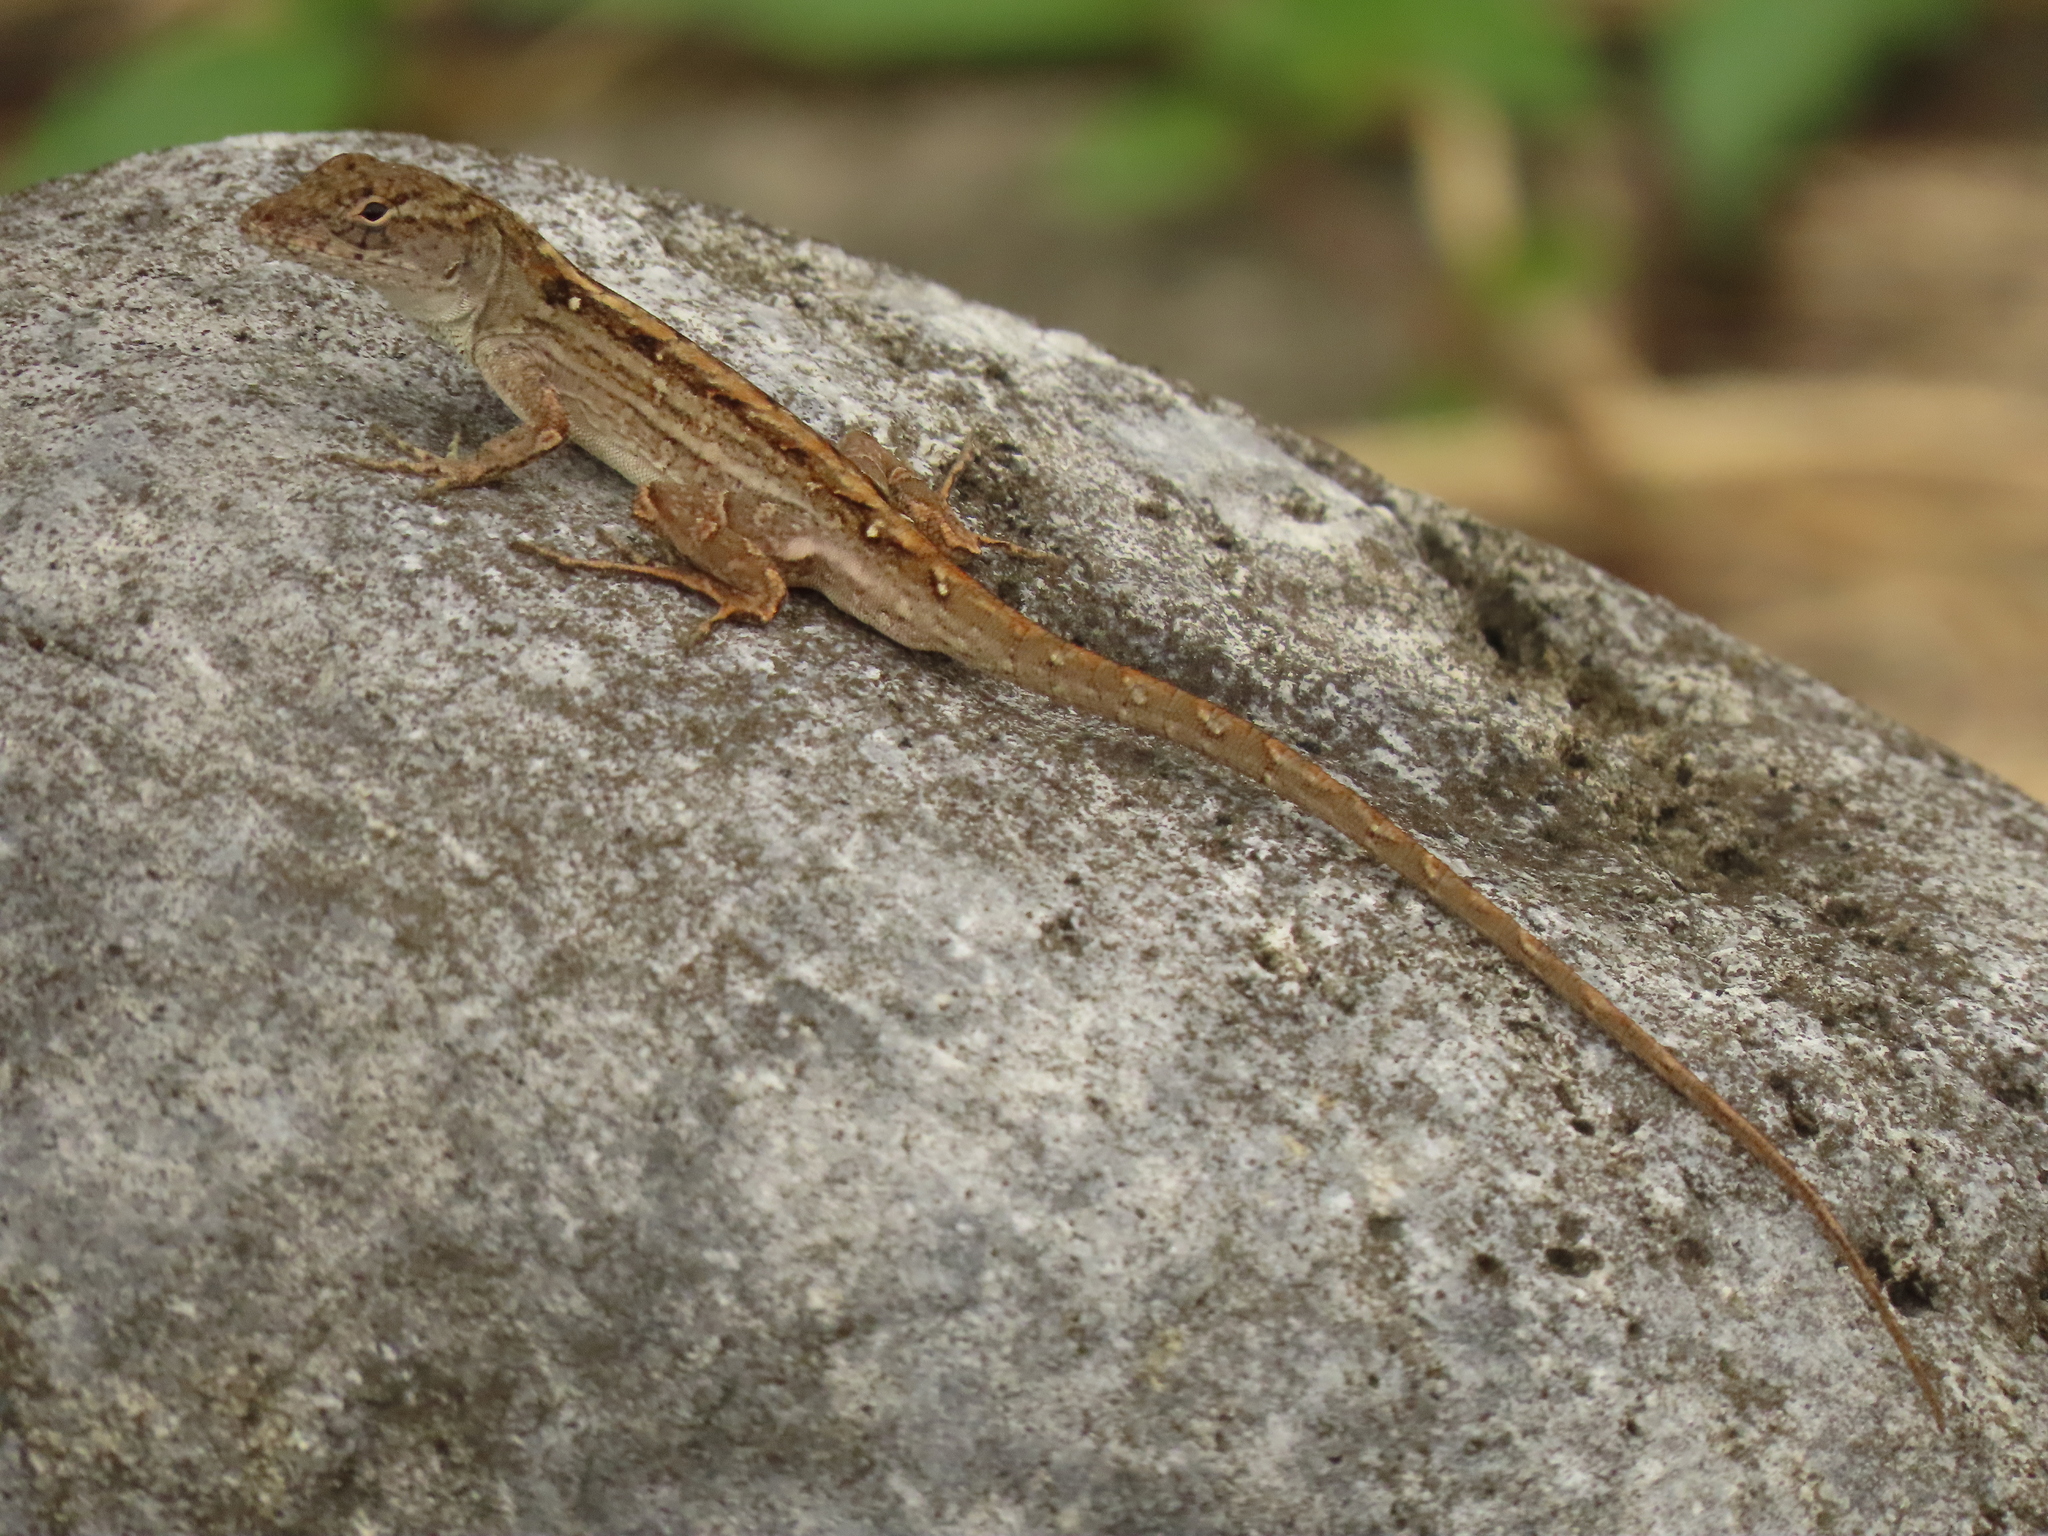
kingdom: Animalia
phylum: Chordata
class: Squamata
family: Dactyloidae
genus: Anolis
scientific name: Anolis sagrei
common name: Brown anole
